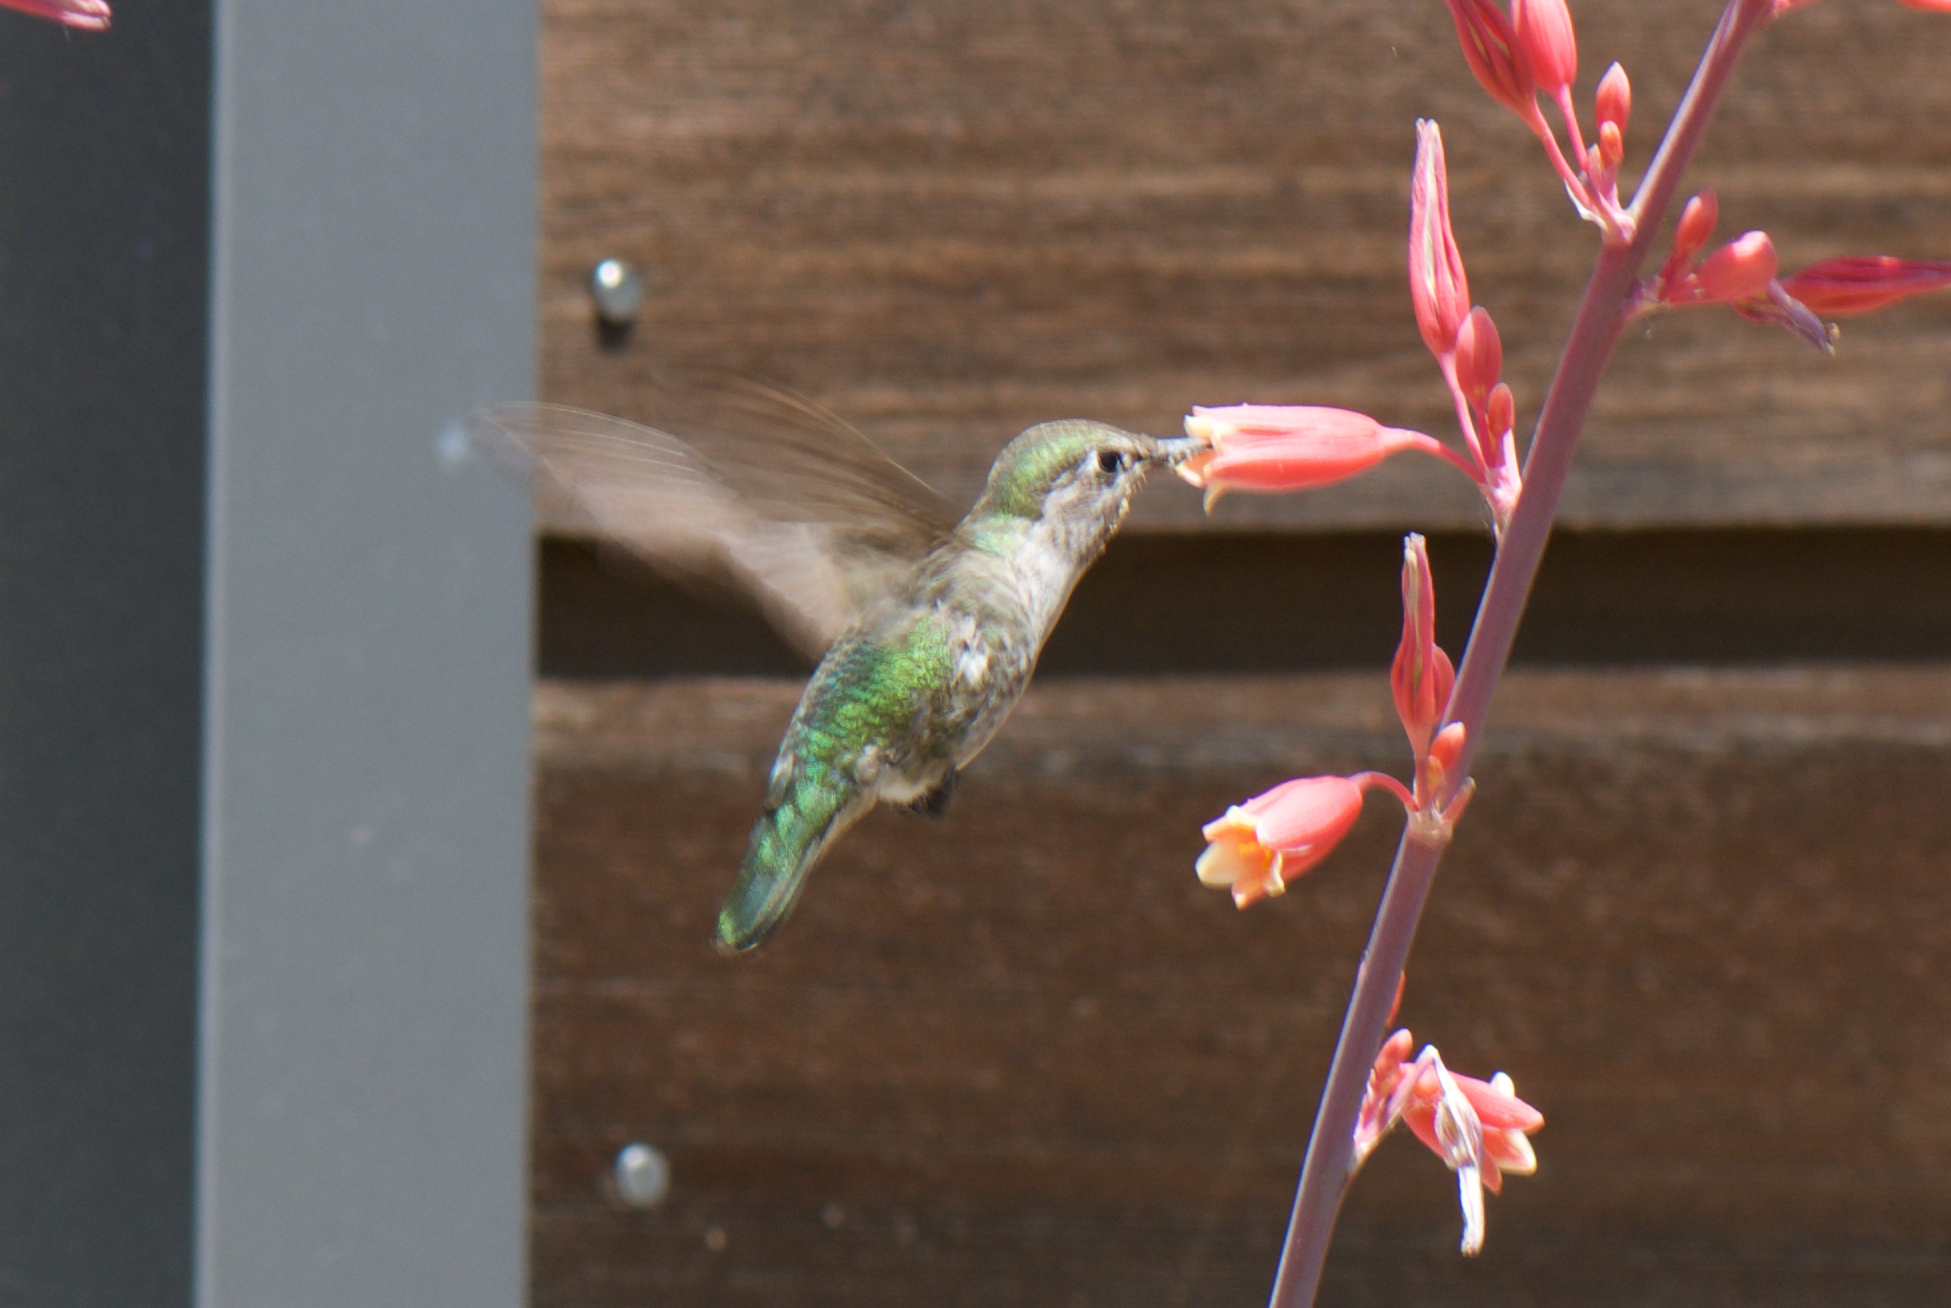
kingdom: Animalia
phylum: Chordata
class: Aves
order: Apodiformes
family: Trochilidae
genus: Calypte
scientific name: Calypte anna
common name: Anna's hummingbird
